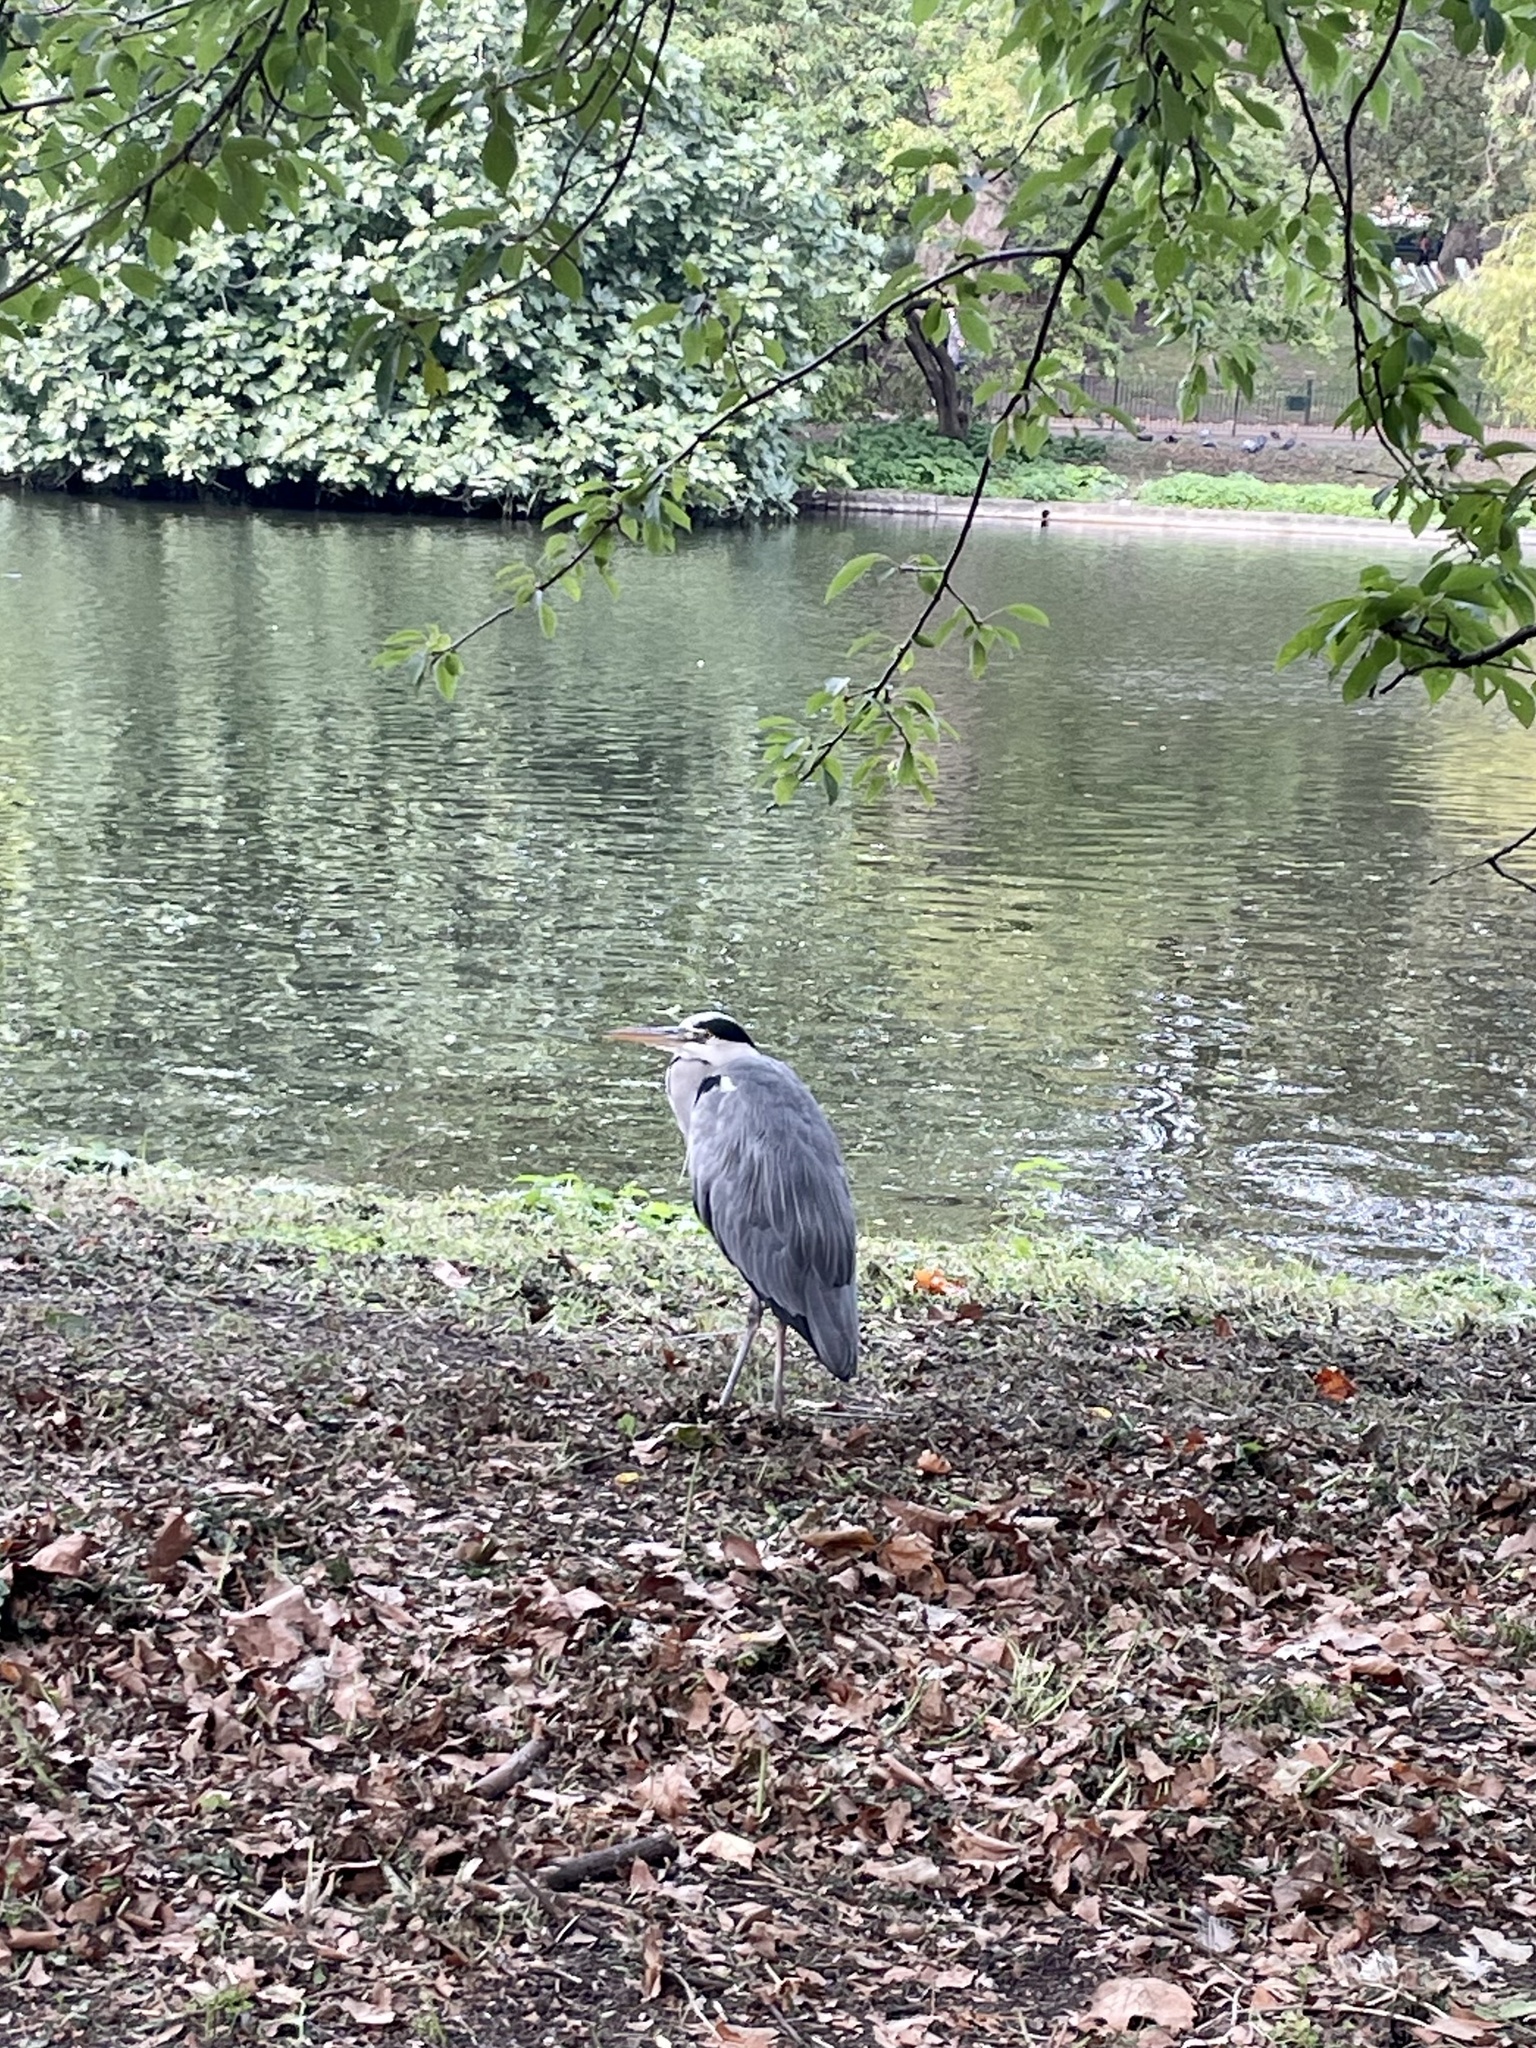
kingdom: Animalia
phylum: Chordata
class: Aves
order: Pelecaniformes
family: Ardeidae
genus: Ardea
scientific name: Ardea cinerea
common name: Grey heron
